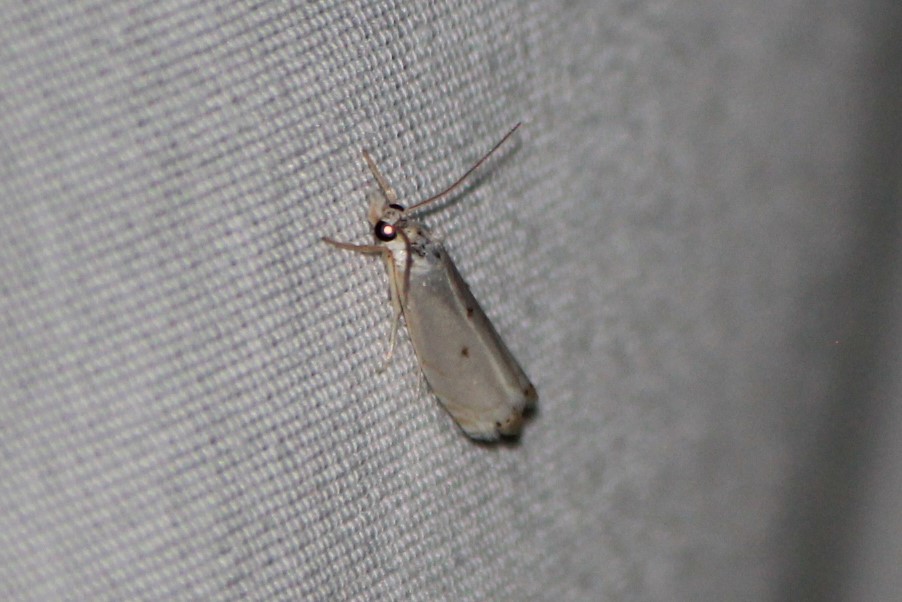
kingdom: Animalia
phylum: Arthropoda
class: Insecta
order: Lepidoptera
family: Crambidae
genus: Microcrambus
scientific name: Microcrambus biguttellus
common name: Gold-stripe grass-veneer moth
